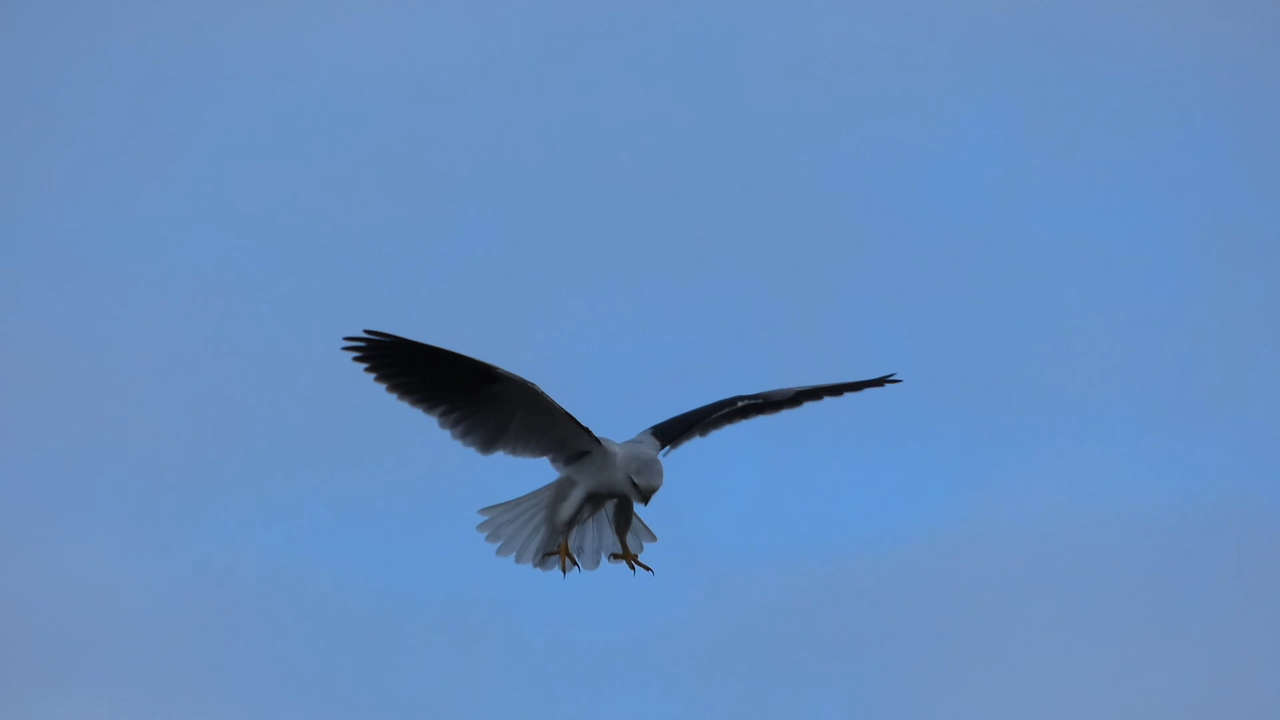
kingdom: Animalia
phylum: Chordata
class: Aves
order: Accipitriformes
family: Accipitridae
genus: Elanus
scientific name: Elanus axillaris
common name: Black-shouldered kite
